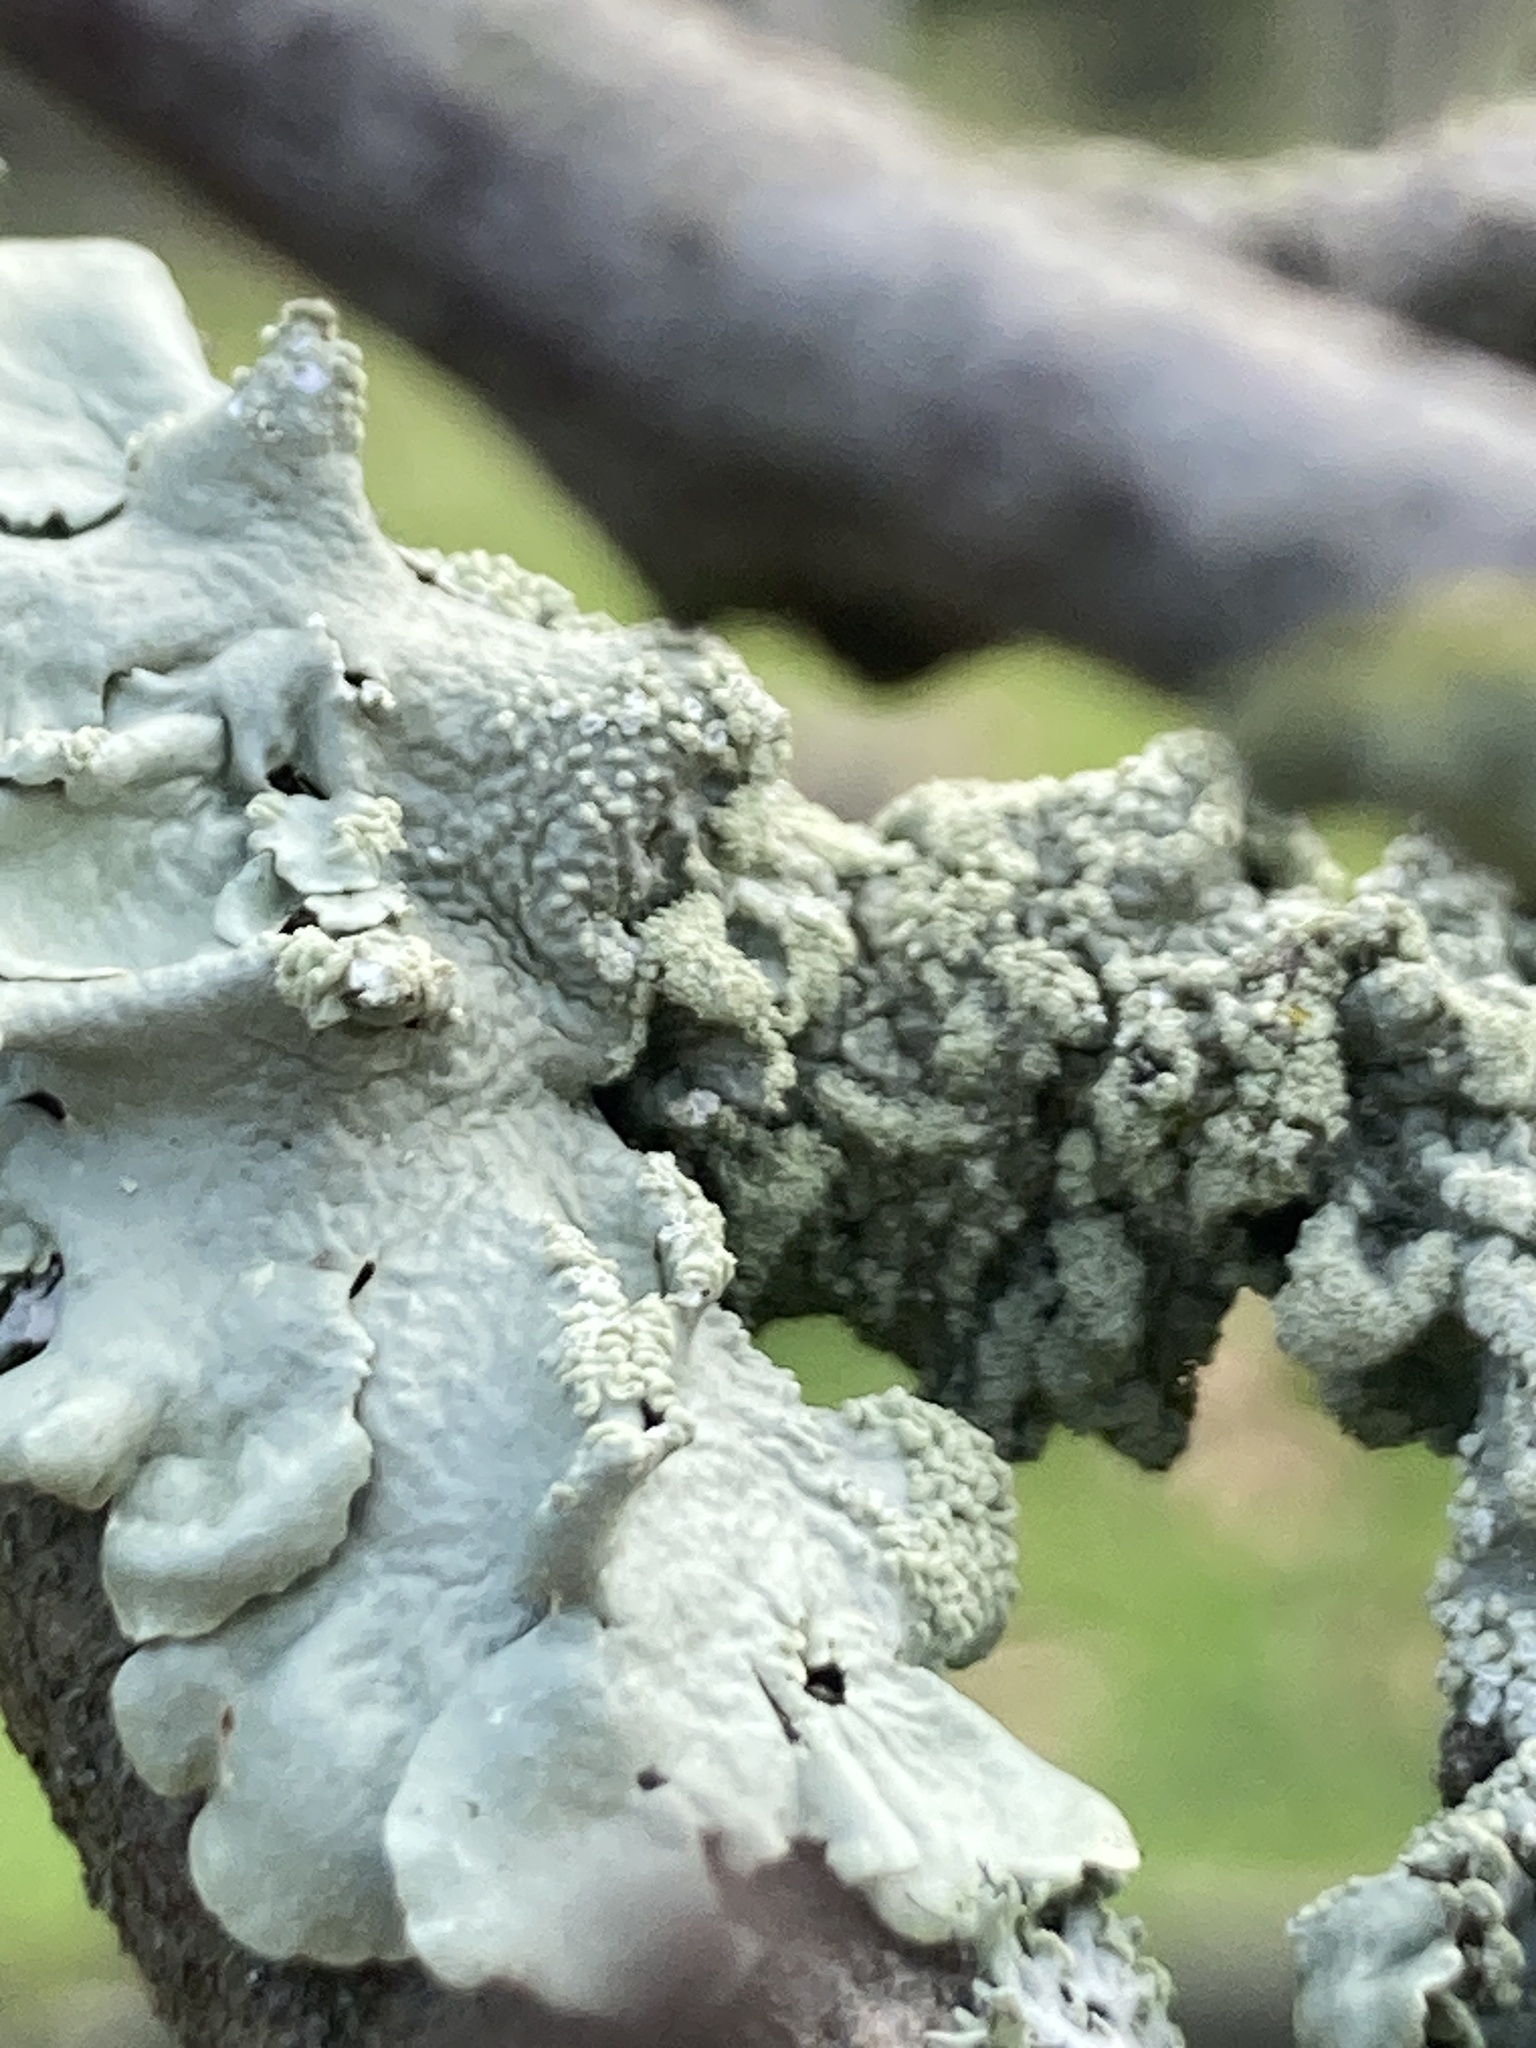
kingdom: Fungi
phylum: Ascomycota
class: Lecanoromycetes
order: Lecanorales
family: Parmeliaceae
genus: Flavoparmelia
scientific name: Flavoparmelia caperata
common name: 40-mile per hour lichen
